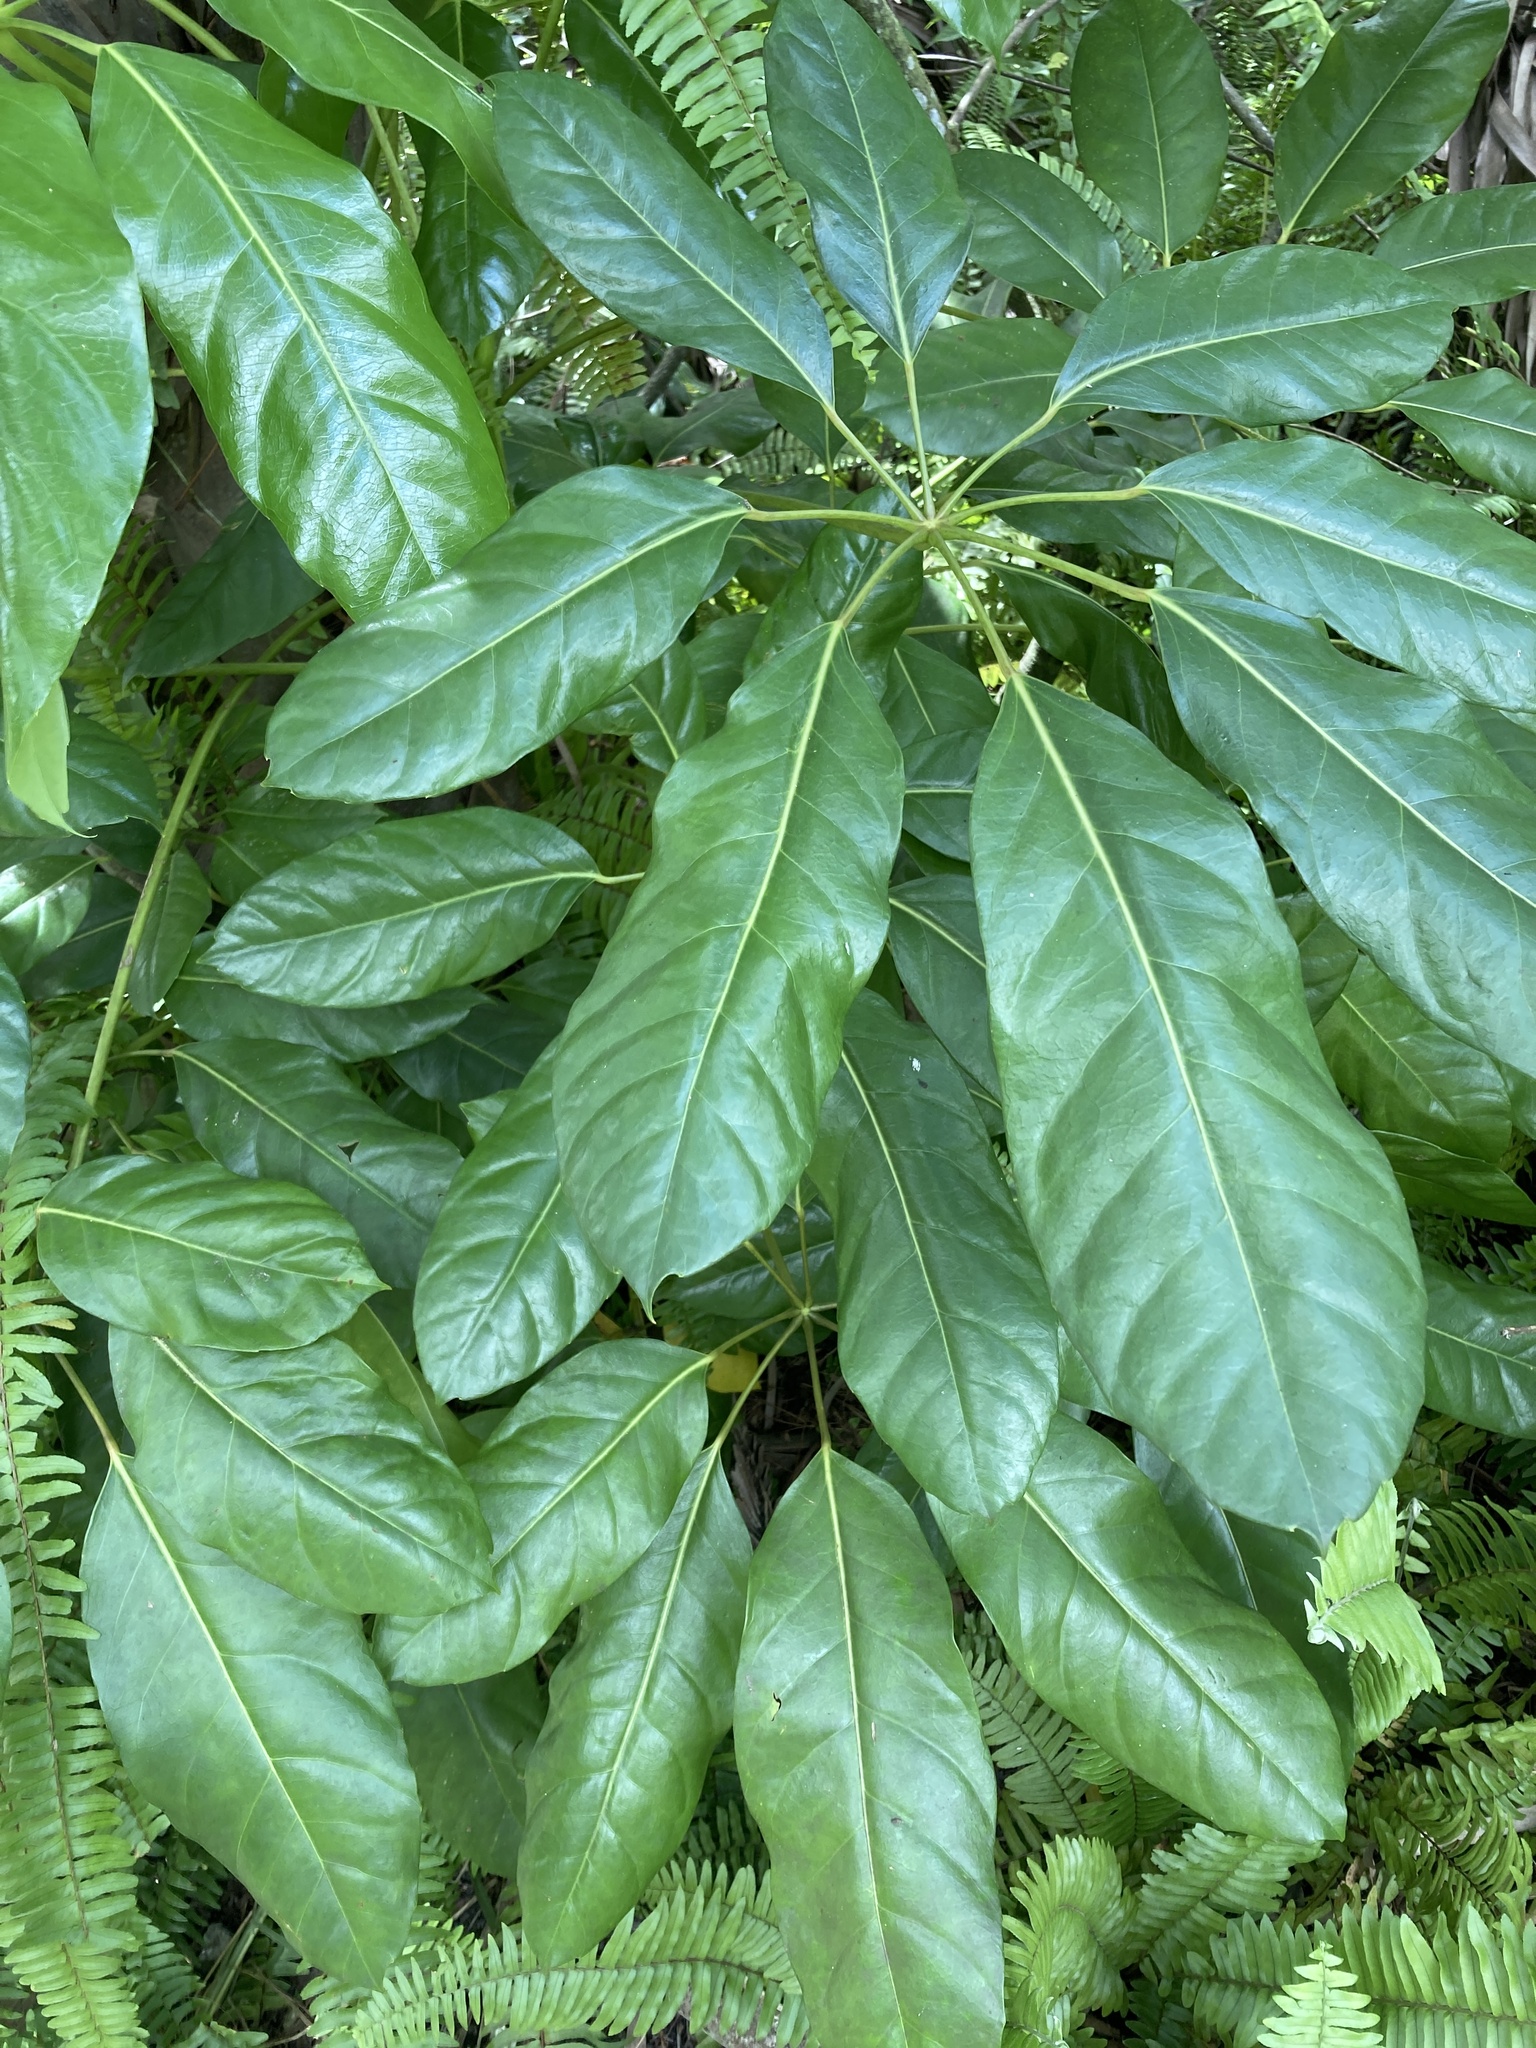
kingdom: Plantae
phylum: Tracheophyta
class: Magnoliopsida
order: Apiales
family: Araliaceae
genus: Heptapleurum
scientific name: Heptapleurum actinophyllum
